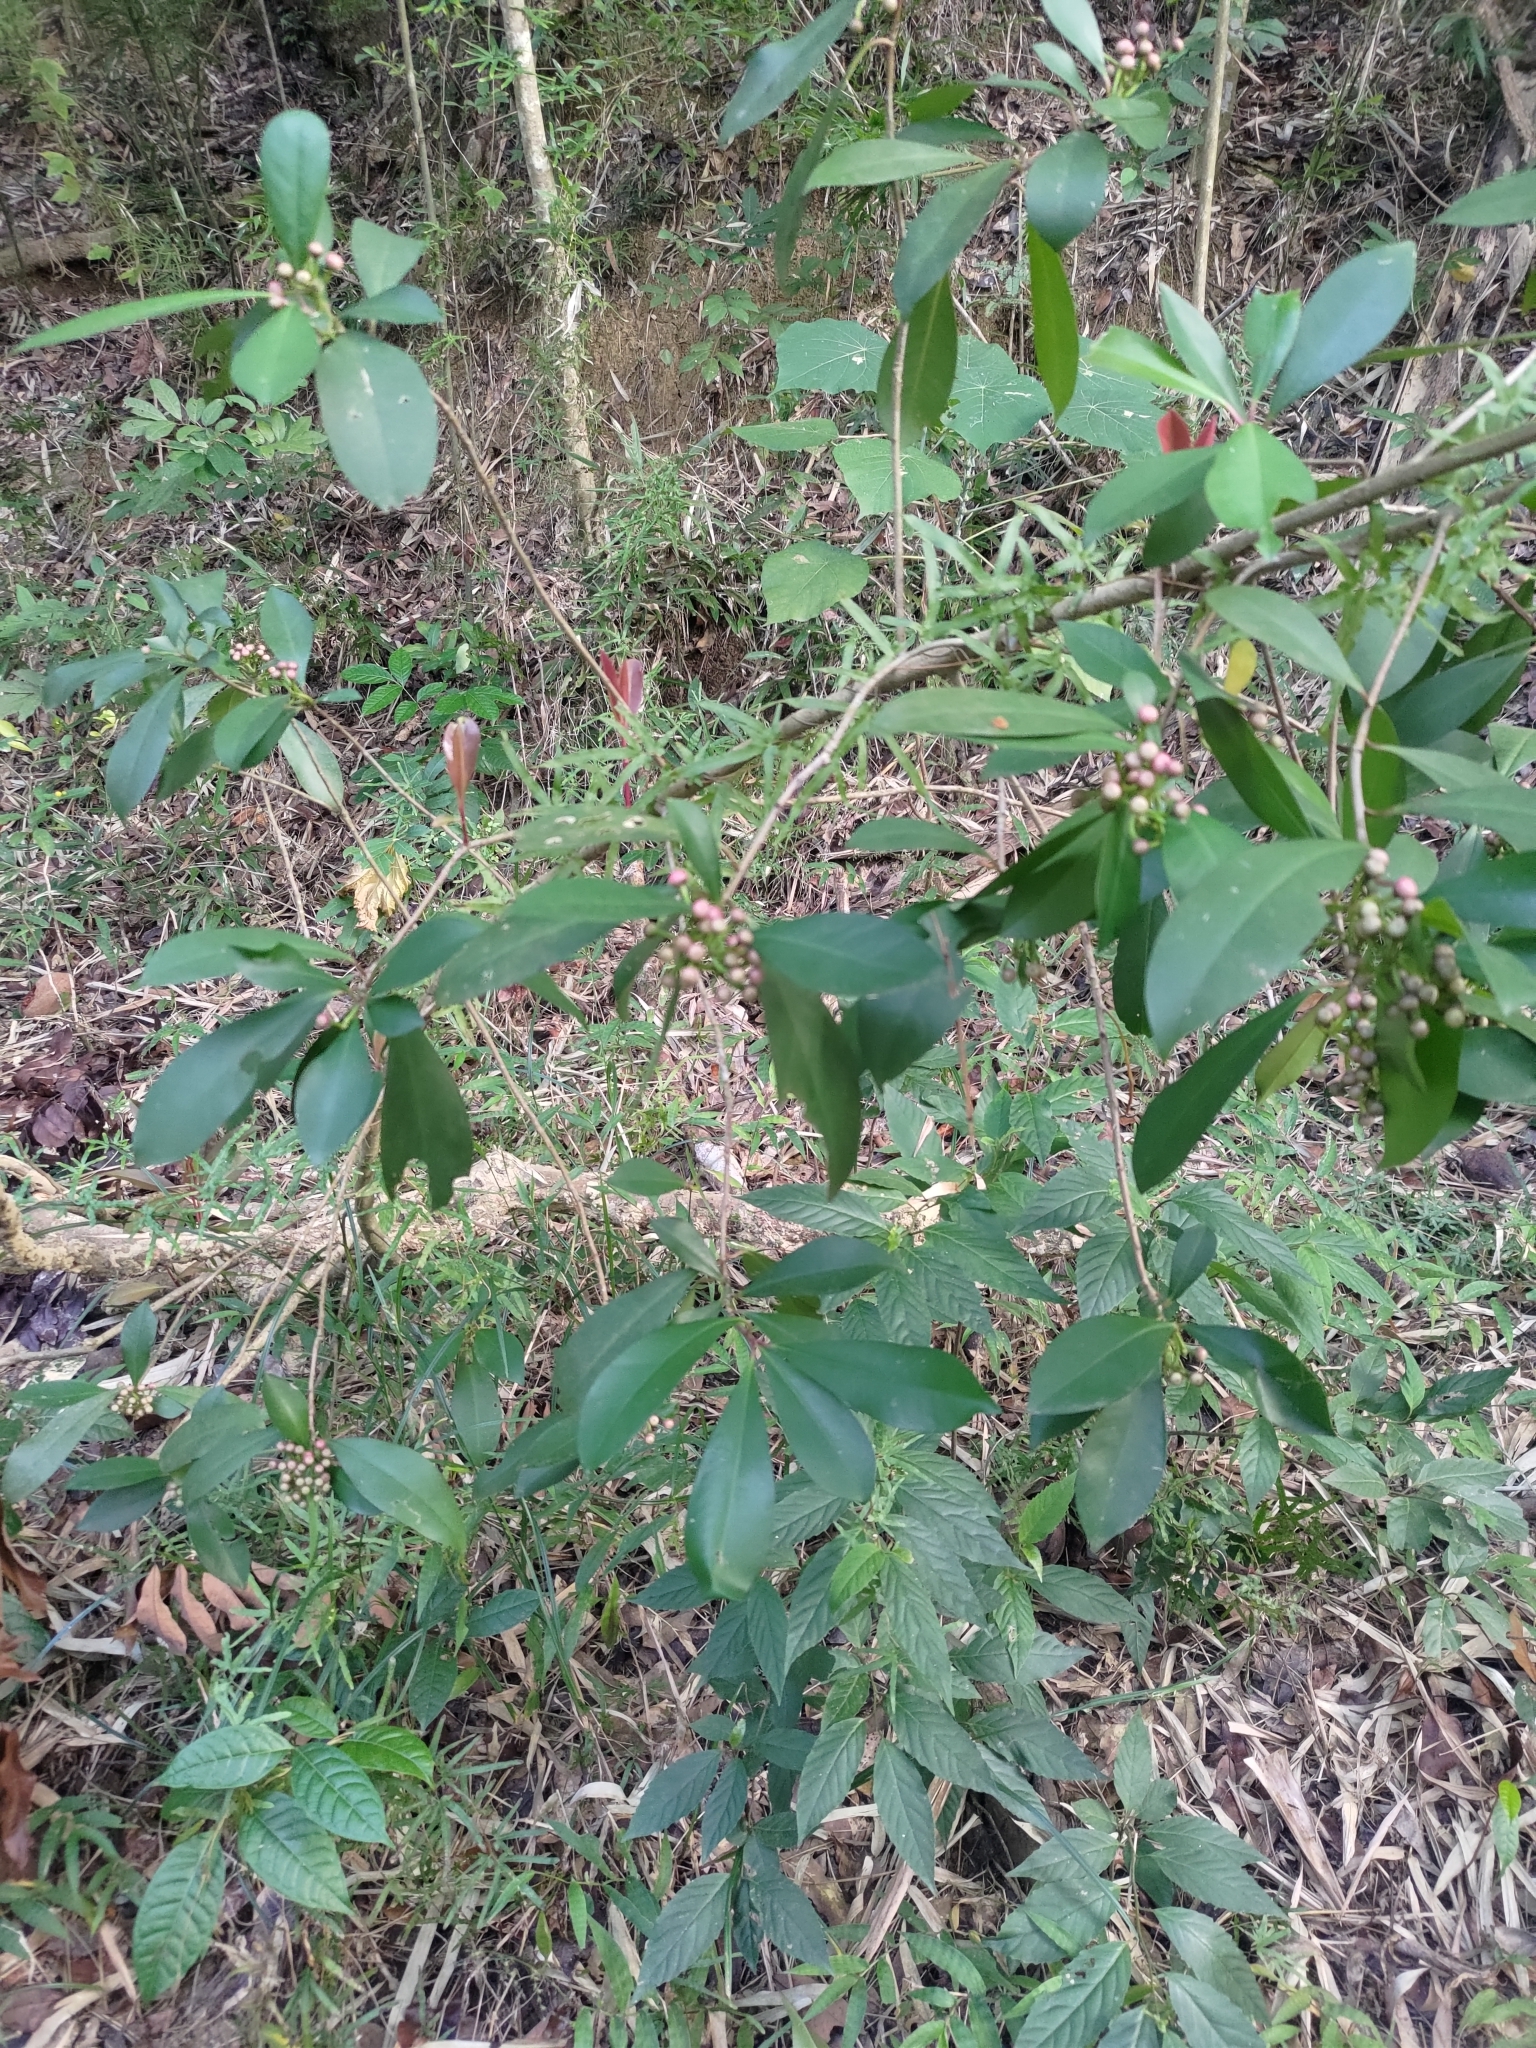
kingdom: Plantae
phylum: Tracheophyta
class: Magnoliopsida
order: Ericales
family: Primulaceae
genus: Ardisia
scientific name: Ardisia elliptica
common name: Shoebutton
